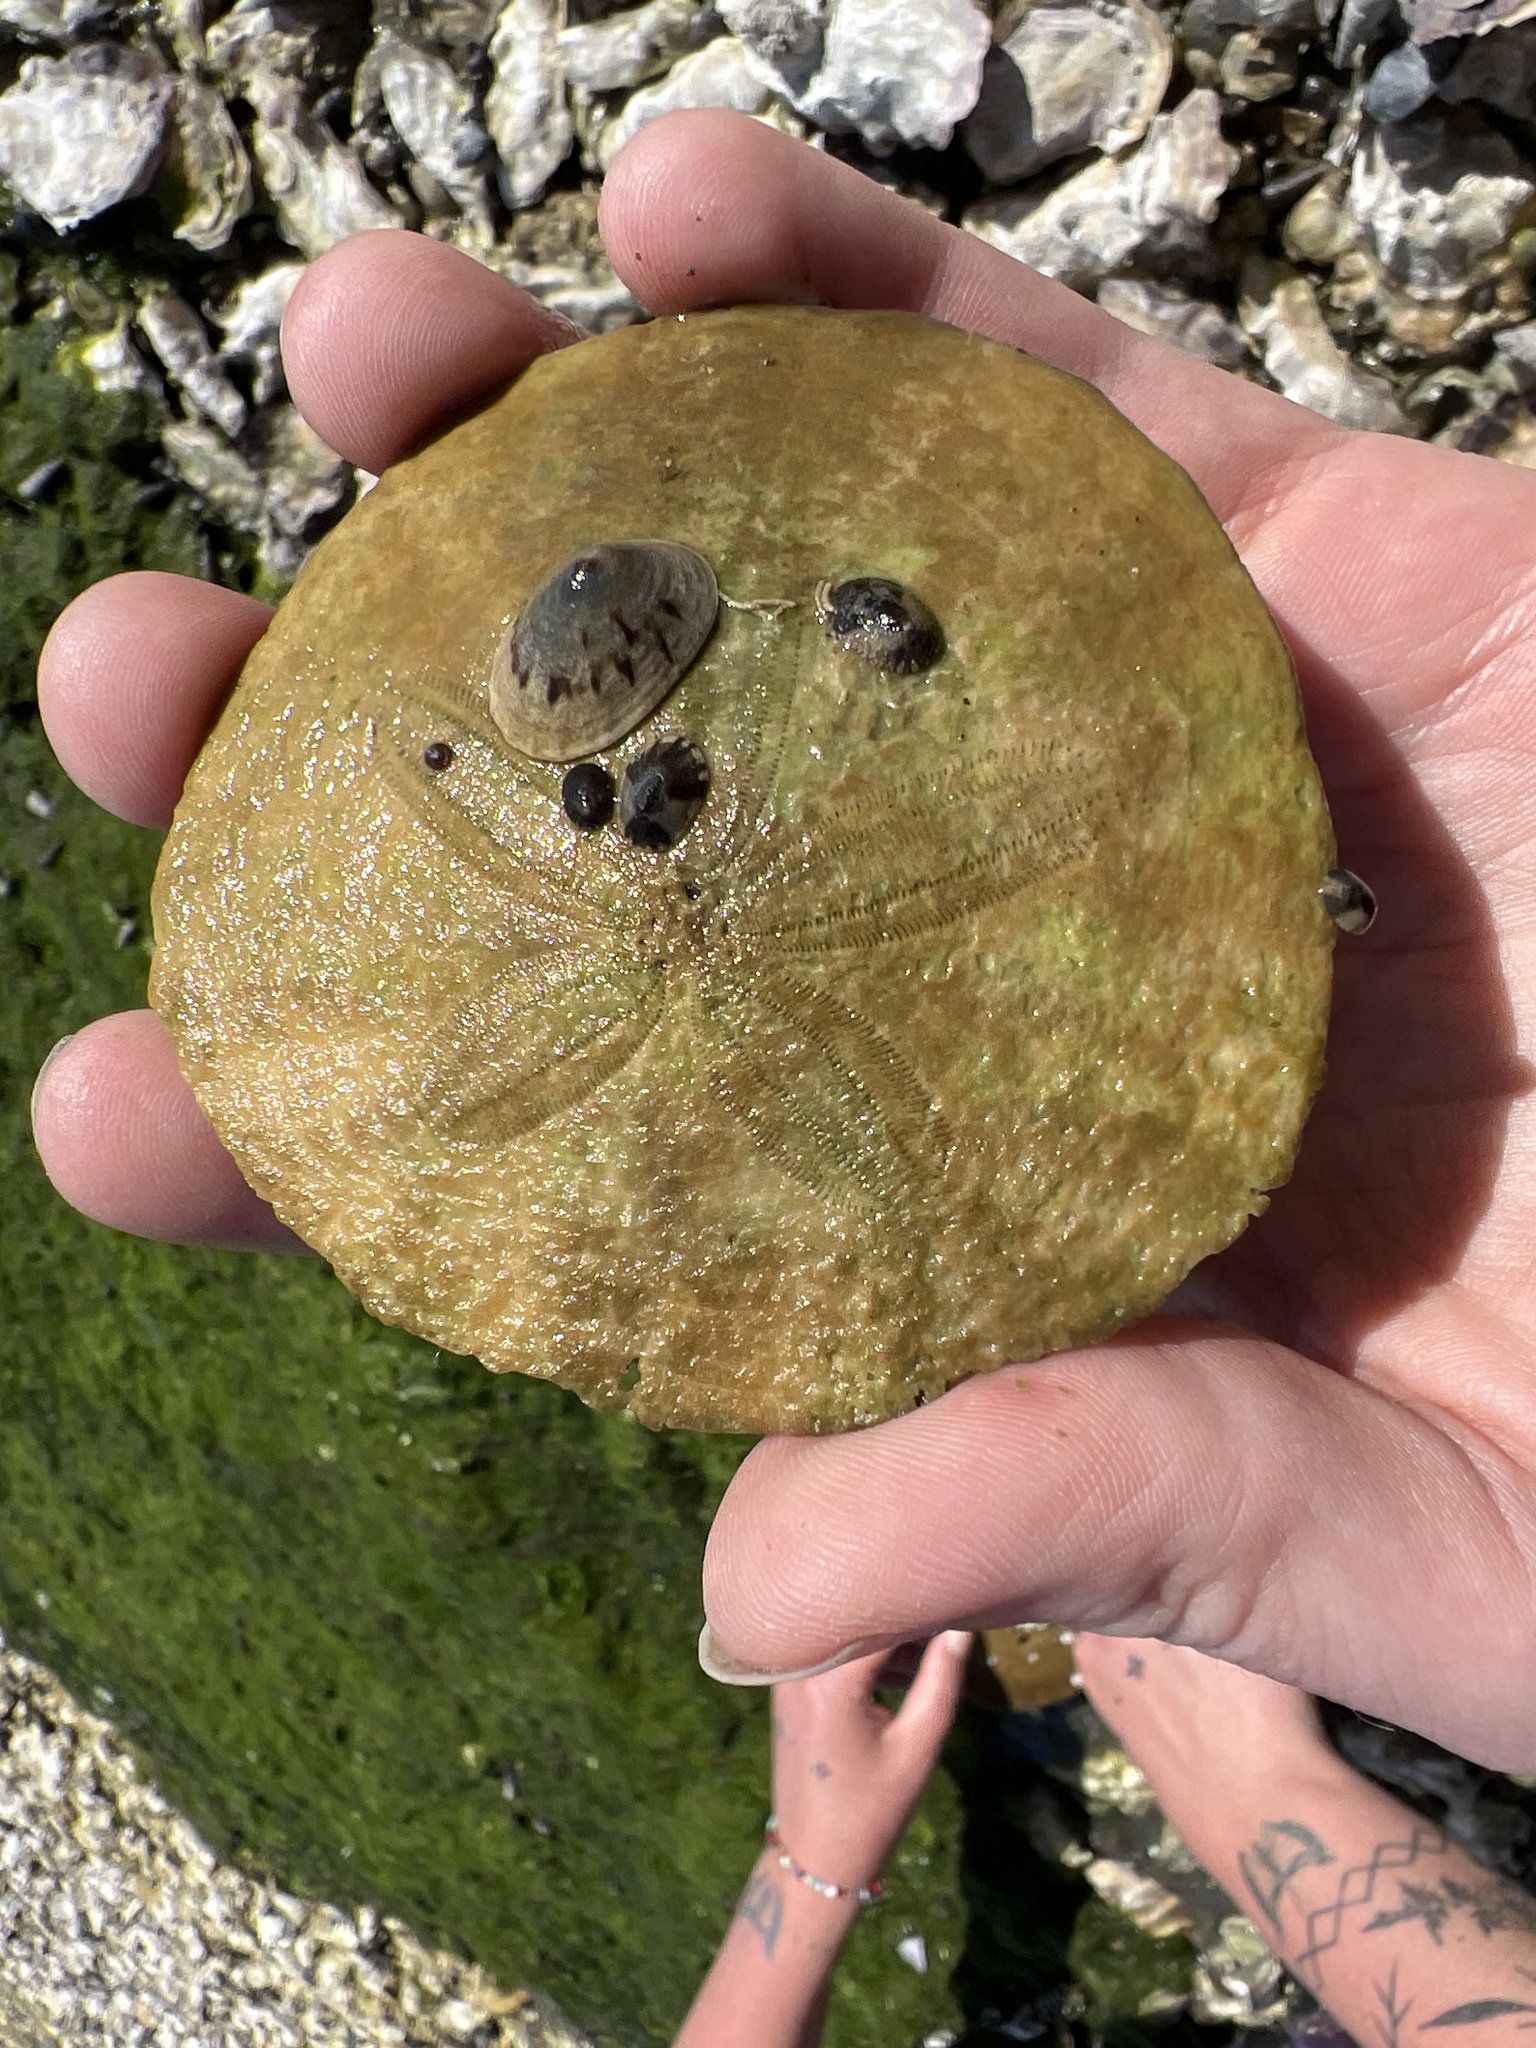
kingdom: Animalia
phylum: Echinodermata
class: Echinoidea
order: Echinolampadacea
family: Dendrasteridae
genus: Dendraster
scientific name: Dendraster excentricus
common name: Eccentric sand dollar sea urchin
